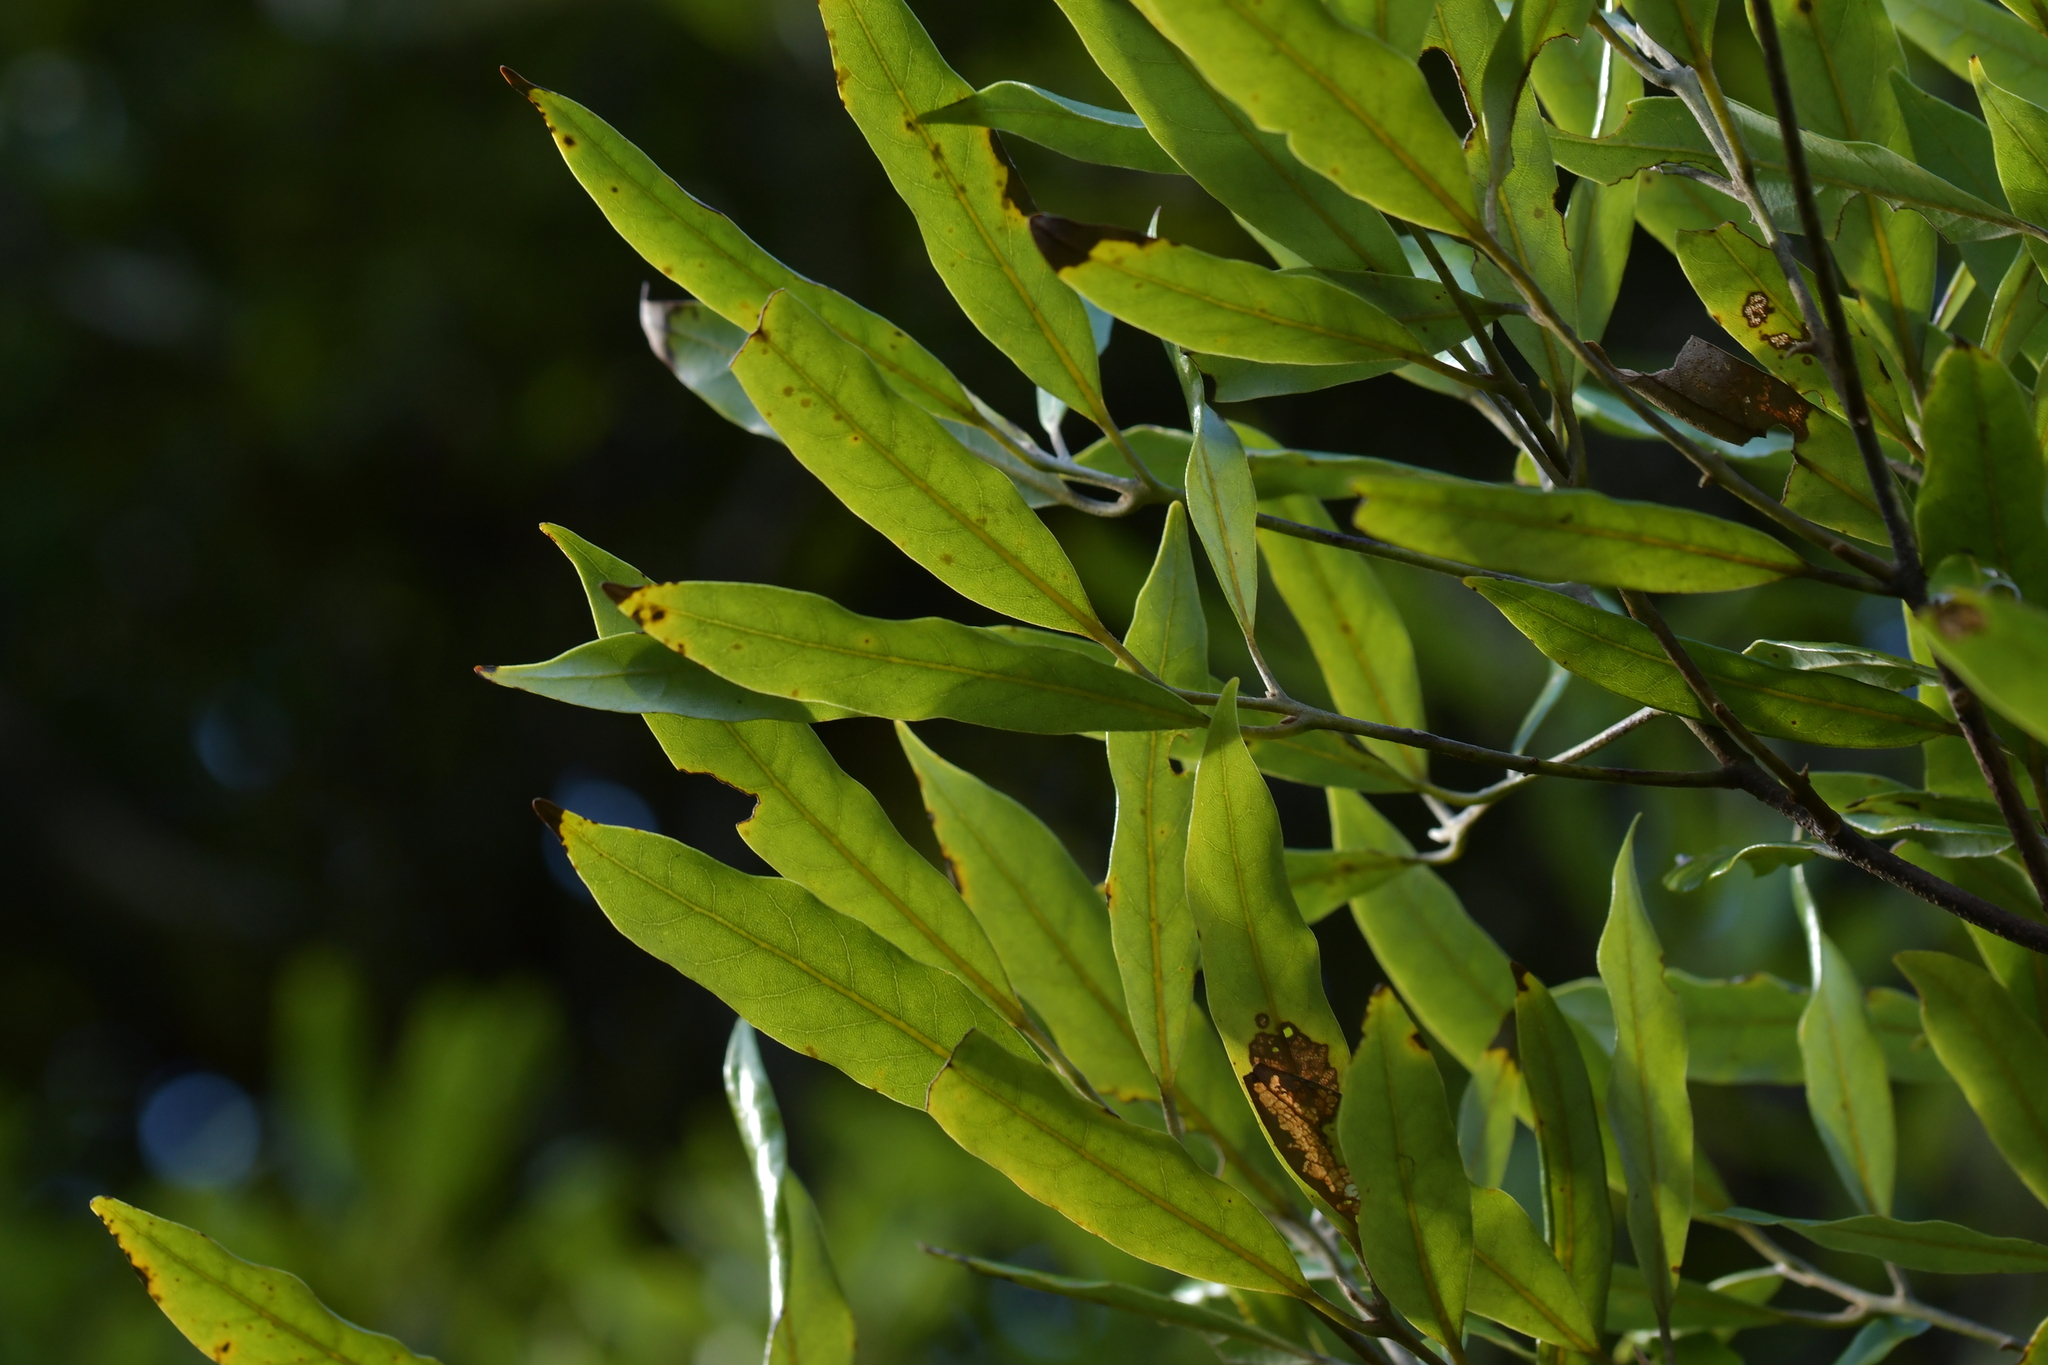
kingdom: Plantae
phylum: Tracheophyta
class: Magnoliopsida
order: Laurales
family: Lauraceae
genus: Beilschmiedia
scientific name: Beilschmiedia tawa
